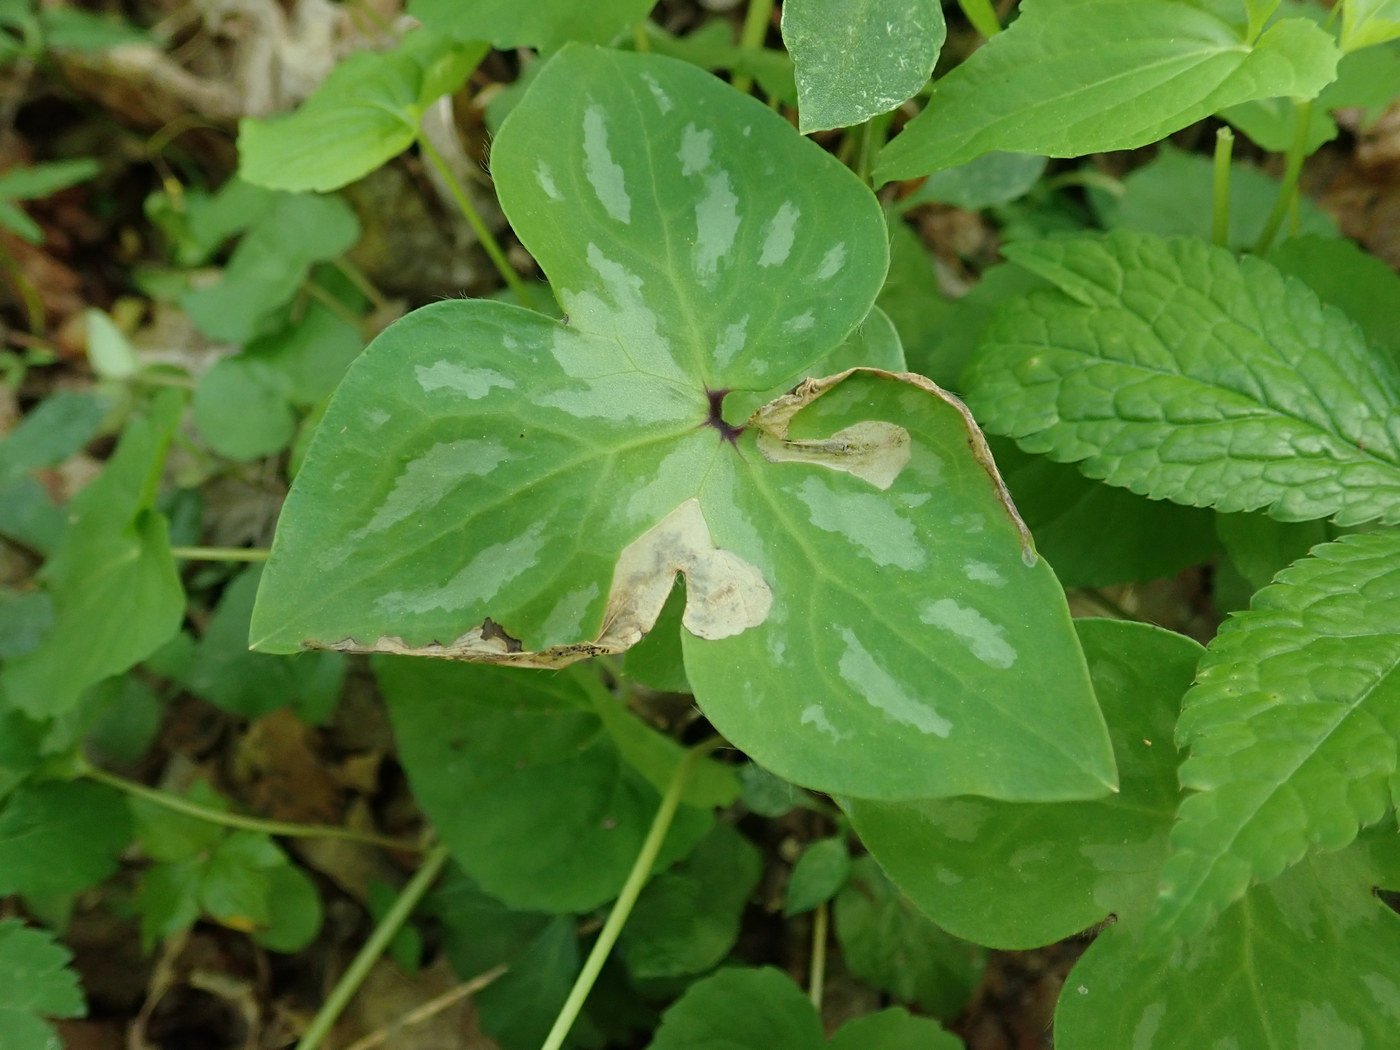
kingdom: Animalia
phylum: Arthropoda
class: Insecta
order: Hymenoptera
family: Tenthredinidae
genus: Pseudodineura
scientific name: Pseudodineura parva
